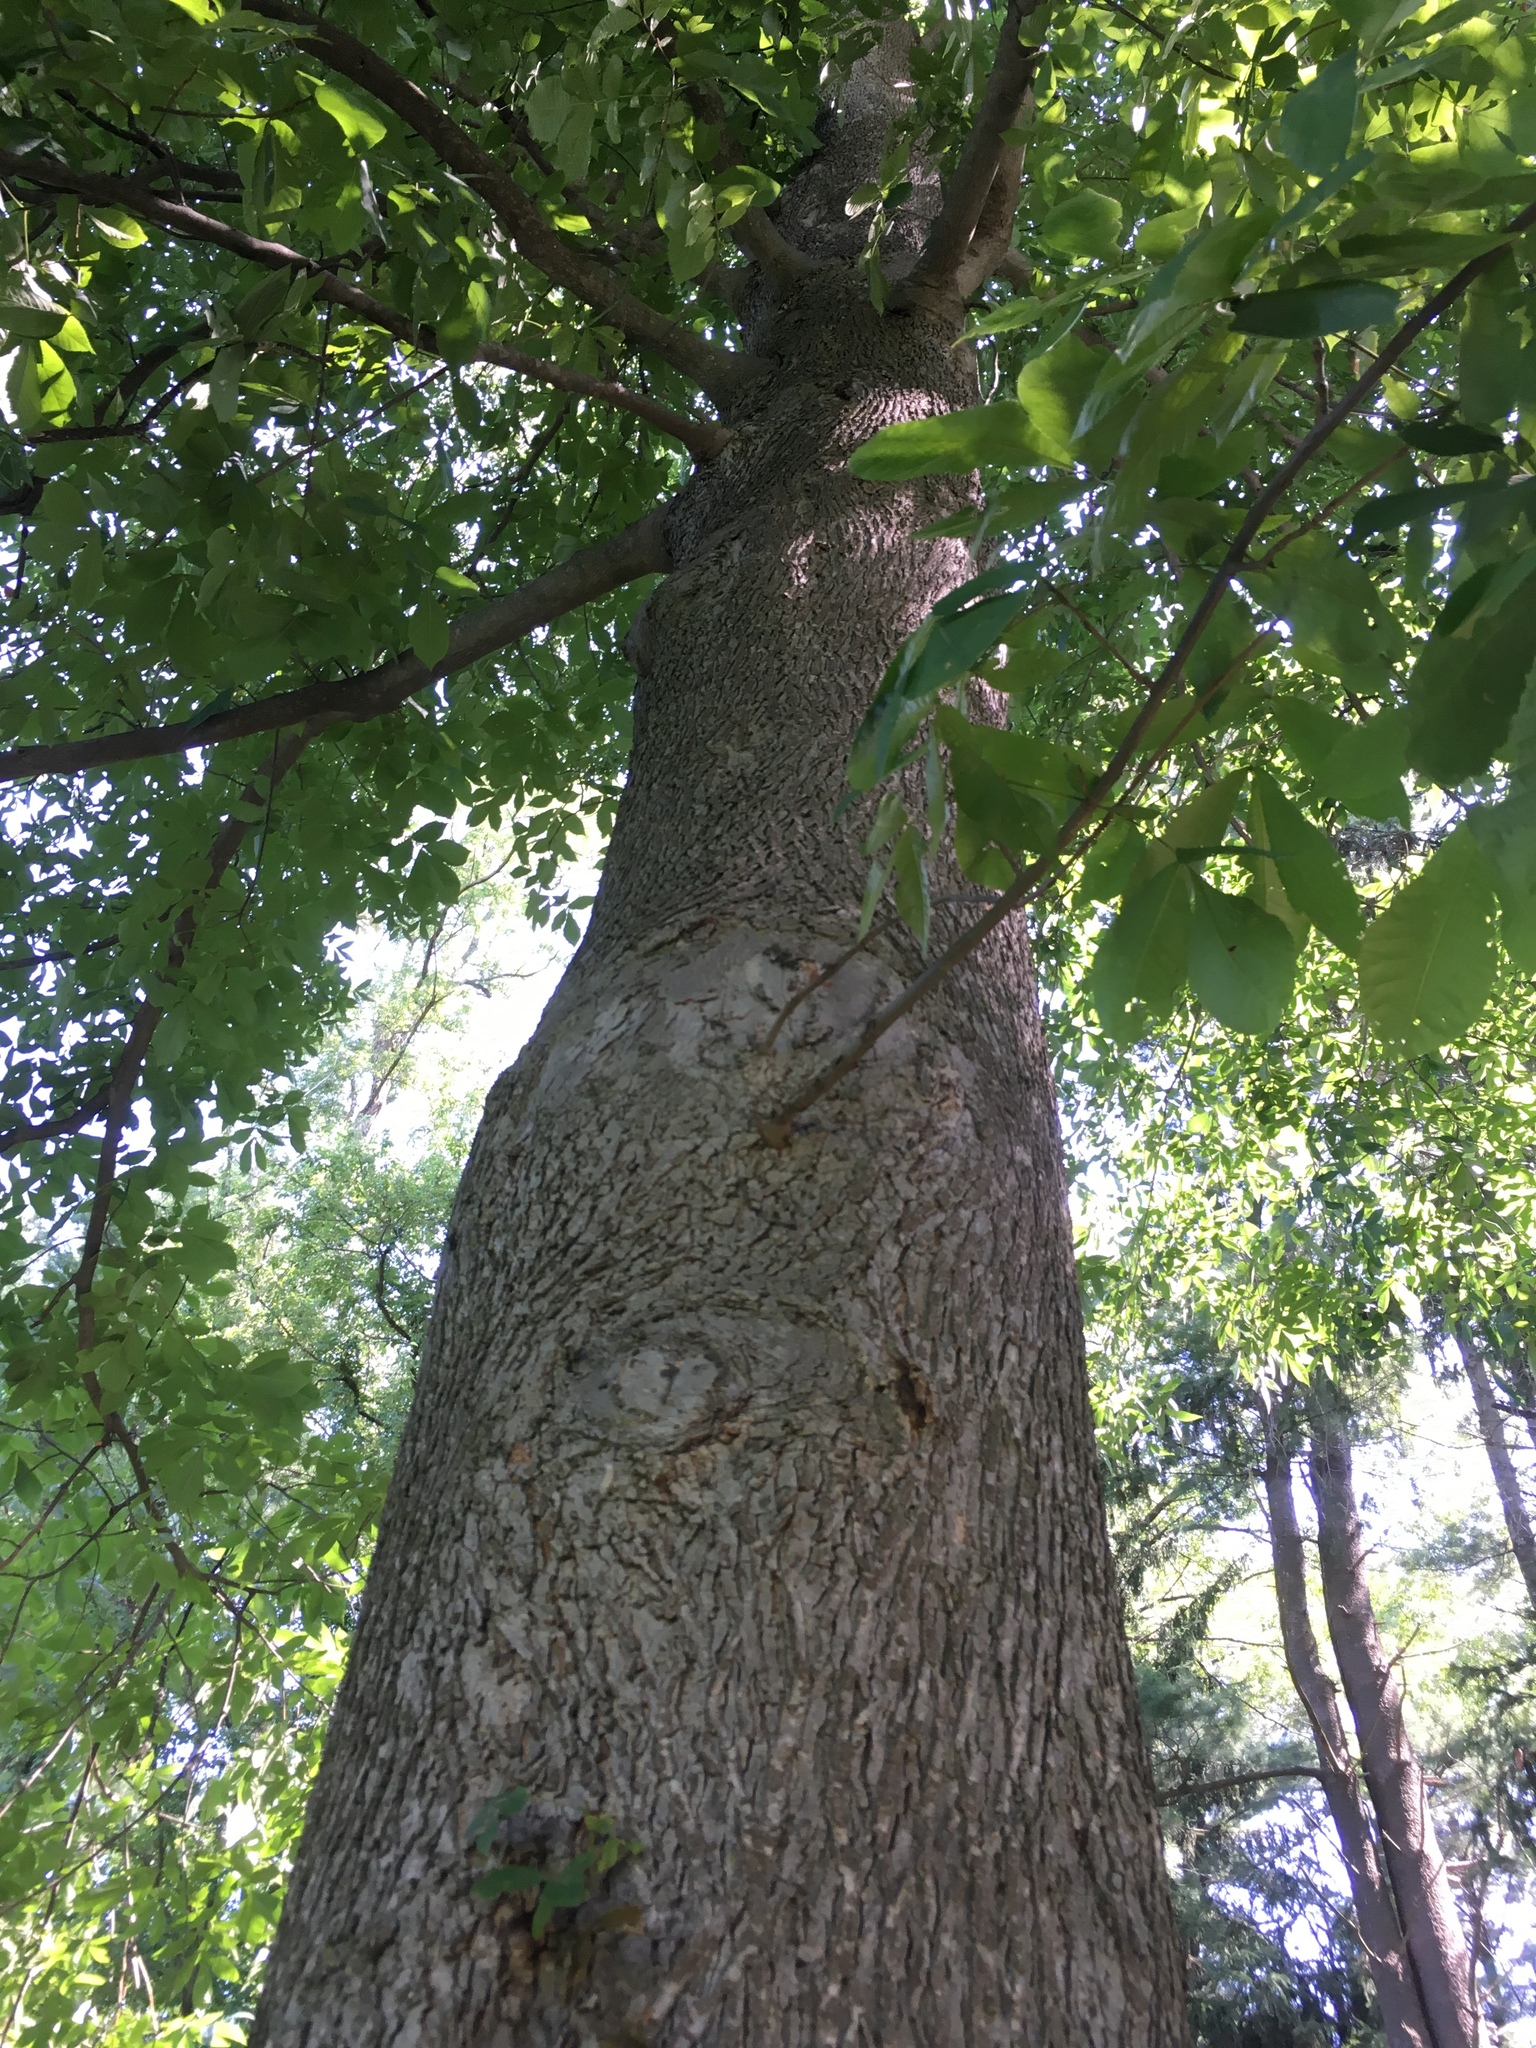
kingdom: Plantae
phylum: Tracheophyta
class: Magnoliopsida
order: Fagales
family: Juglandaceae
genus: Carya
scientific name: Carya cordiformis
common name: Bitternut hickory
